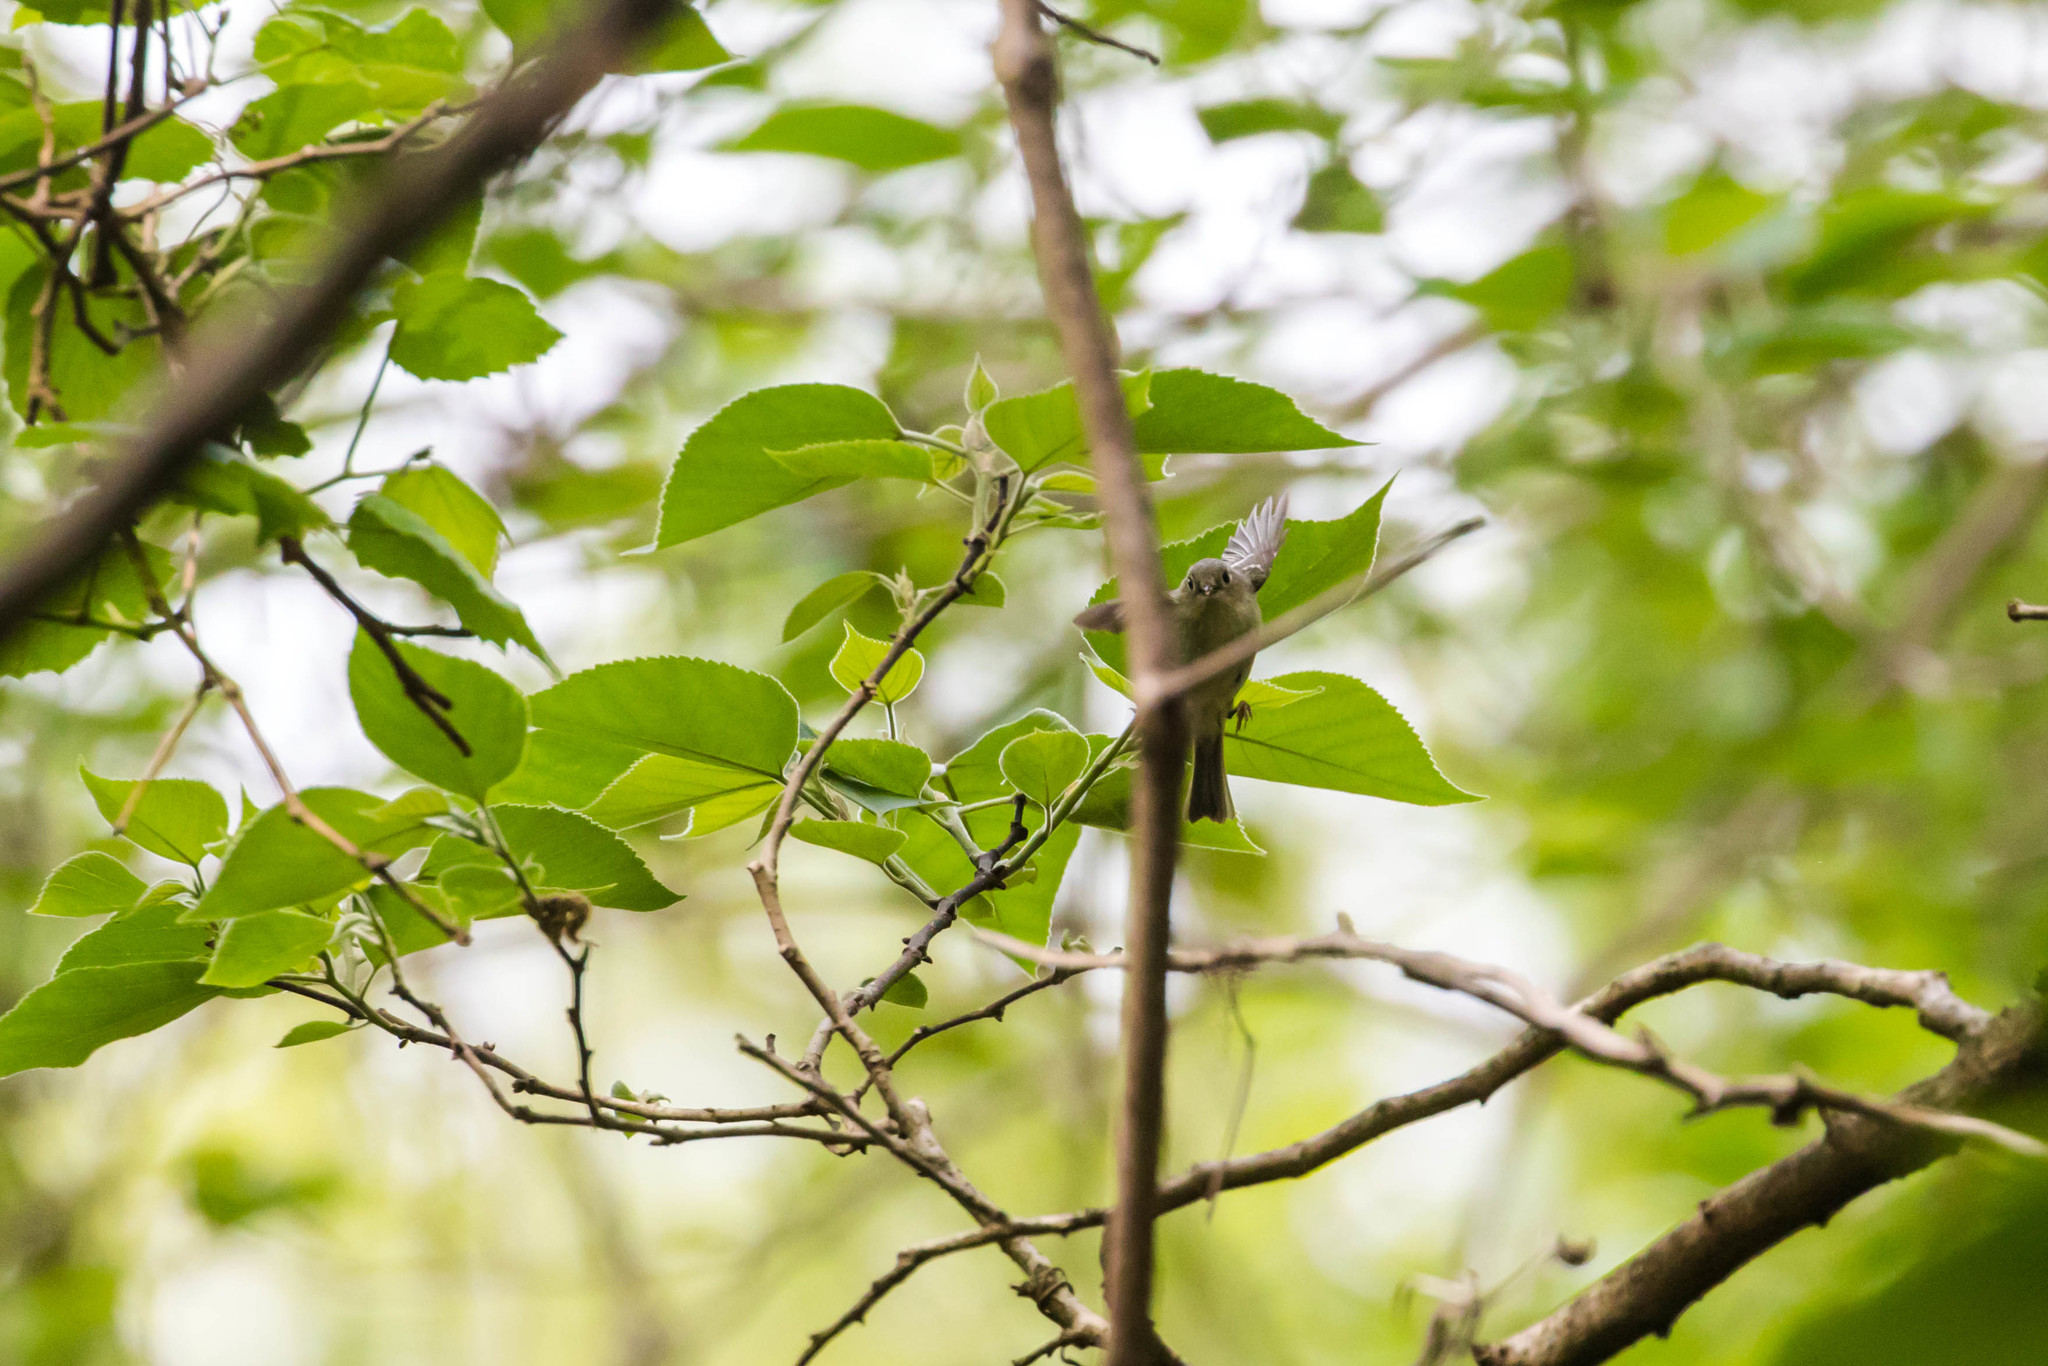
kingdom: Animalia
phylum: Chordata
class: Aves
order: Passeriformes
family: Regulidae
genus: Regulus
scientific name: Regulus calendula
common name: Ruby-crowned kinglet
